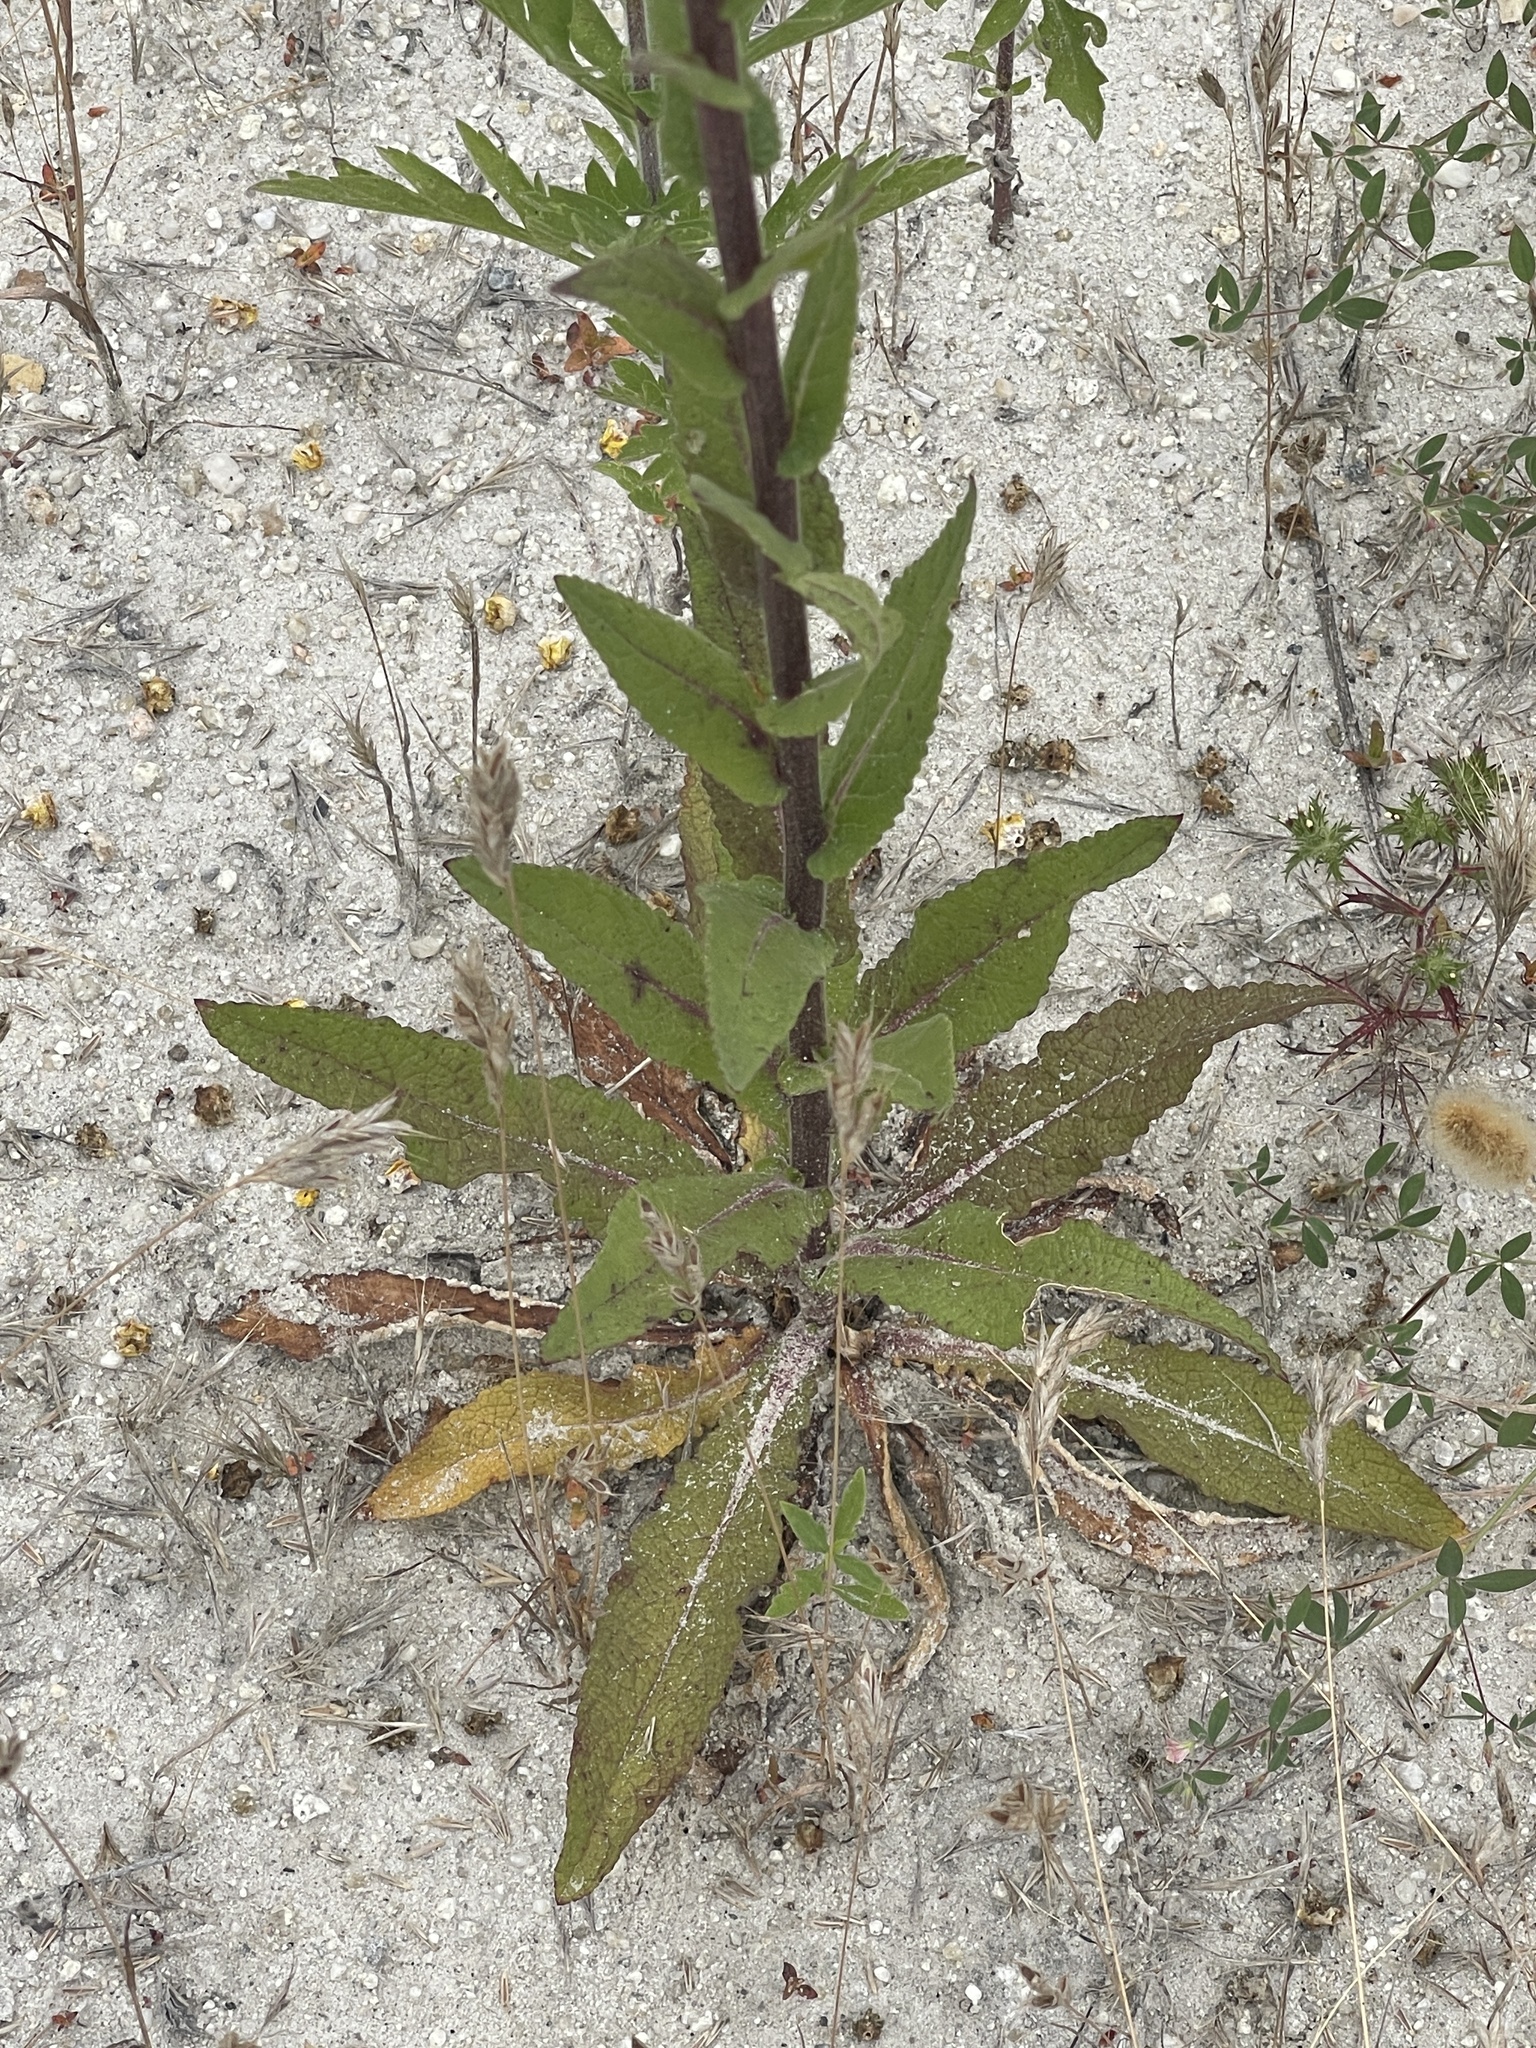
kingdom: Plantae
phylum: Tracheophyta
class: Magnoliopsida
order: Lamiales
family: Scrophulariaceae
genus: Verbascum
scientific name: Verbascum virgatum
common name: Twiggy mullein
